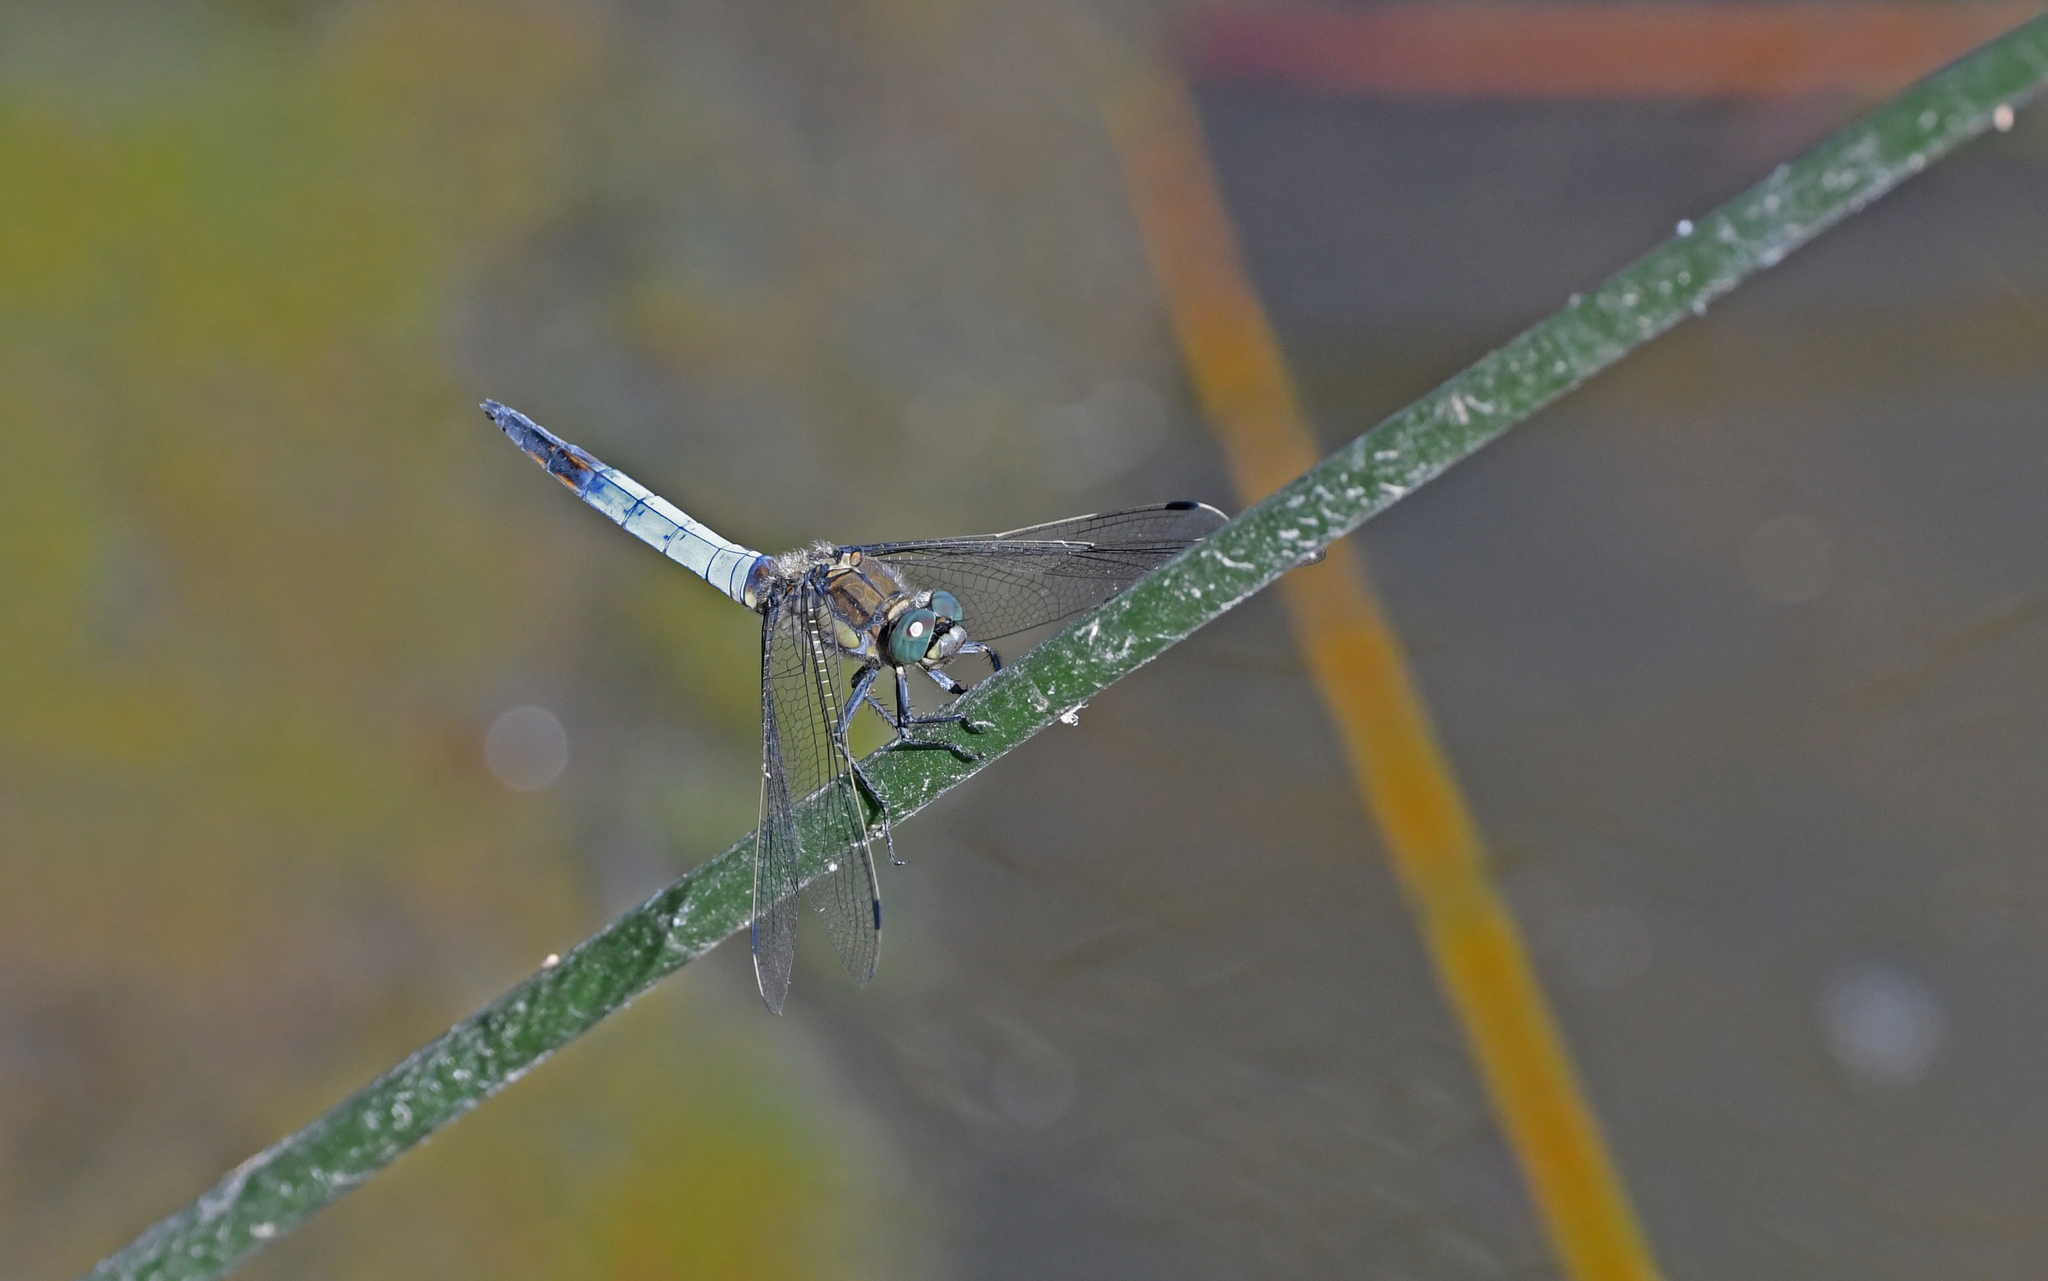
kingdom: Animalia
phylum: Arthropoda
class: Insecta
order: Odonata
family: Libellulidae
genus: Orthetrum
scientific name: Orthetrum cancellatum
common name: Black-tailed skimmer
